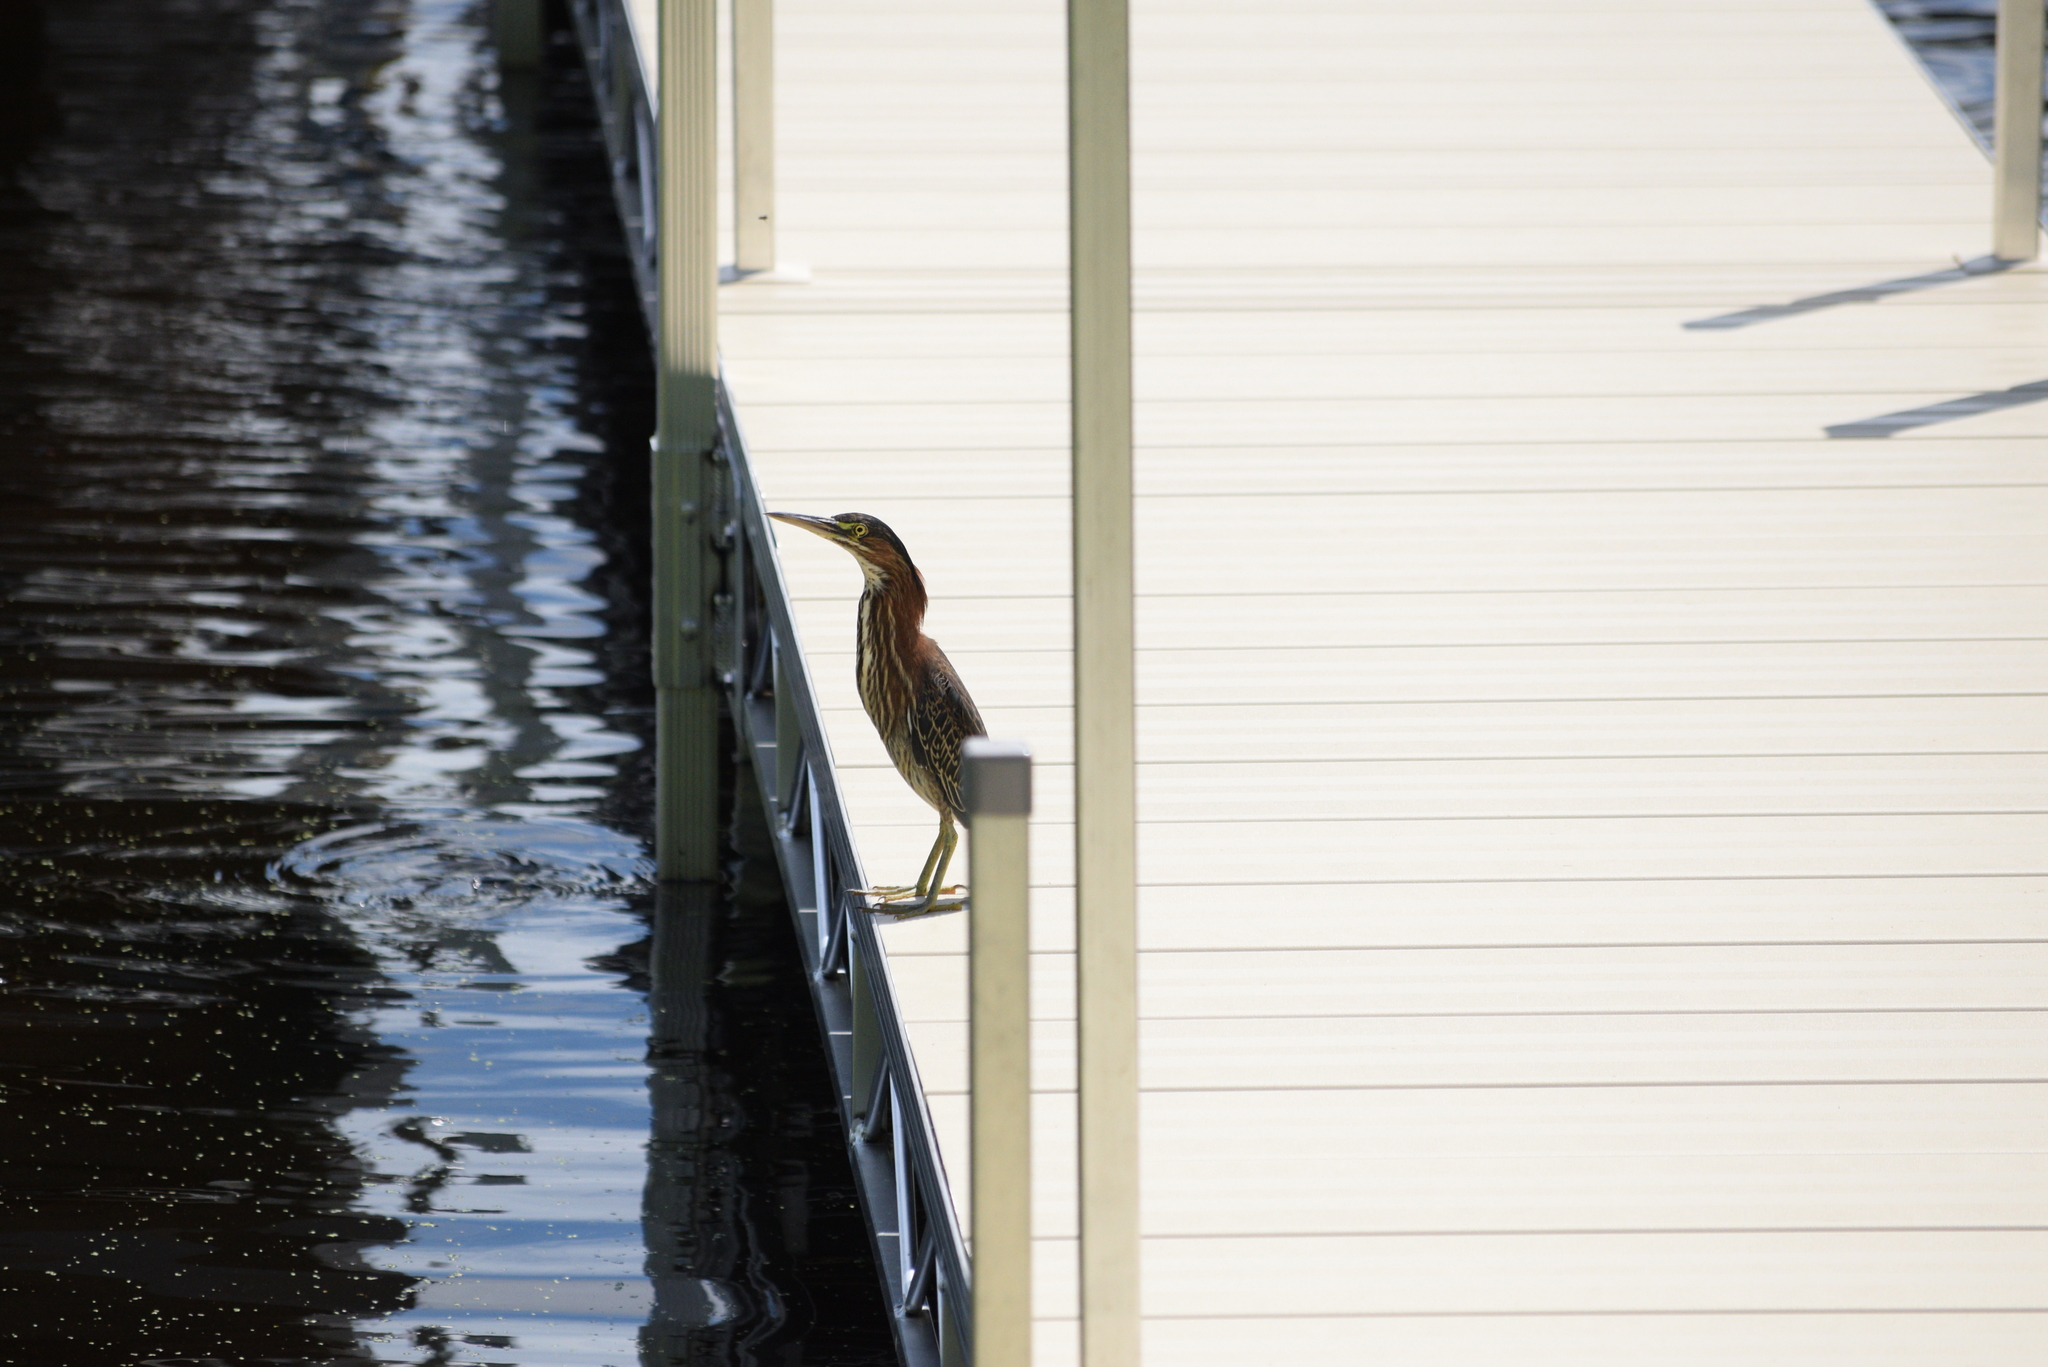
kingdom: Animalia
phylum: Chordata
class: Aves
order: Pelecaniformes
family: Ardeidae
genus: Butorides
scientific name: Butorides virescens
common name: Green heron
